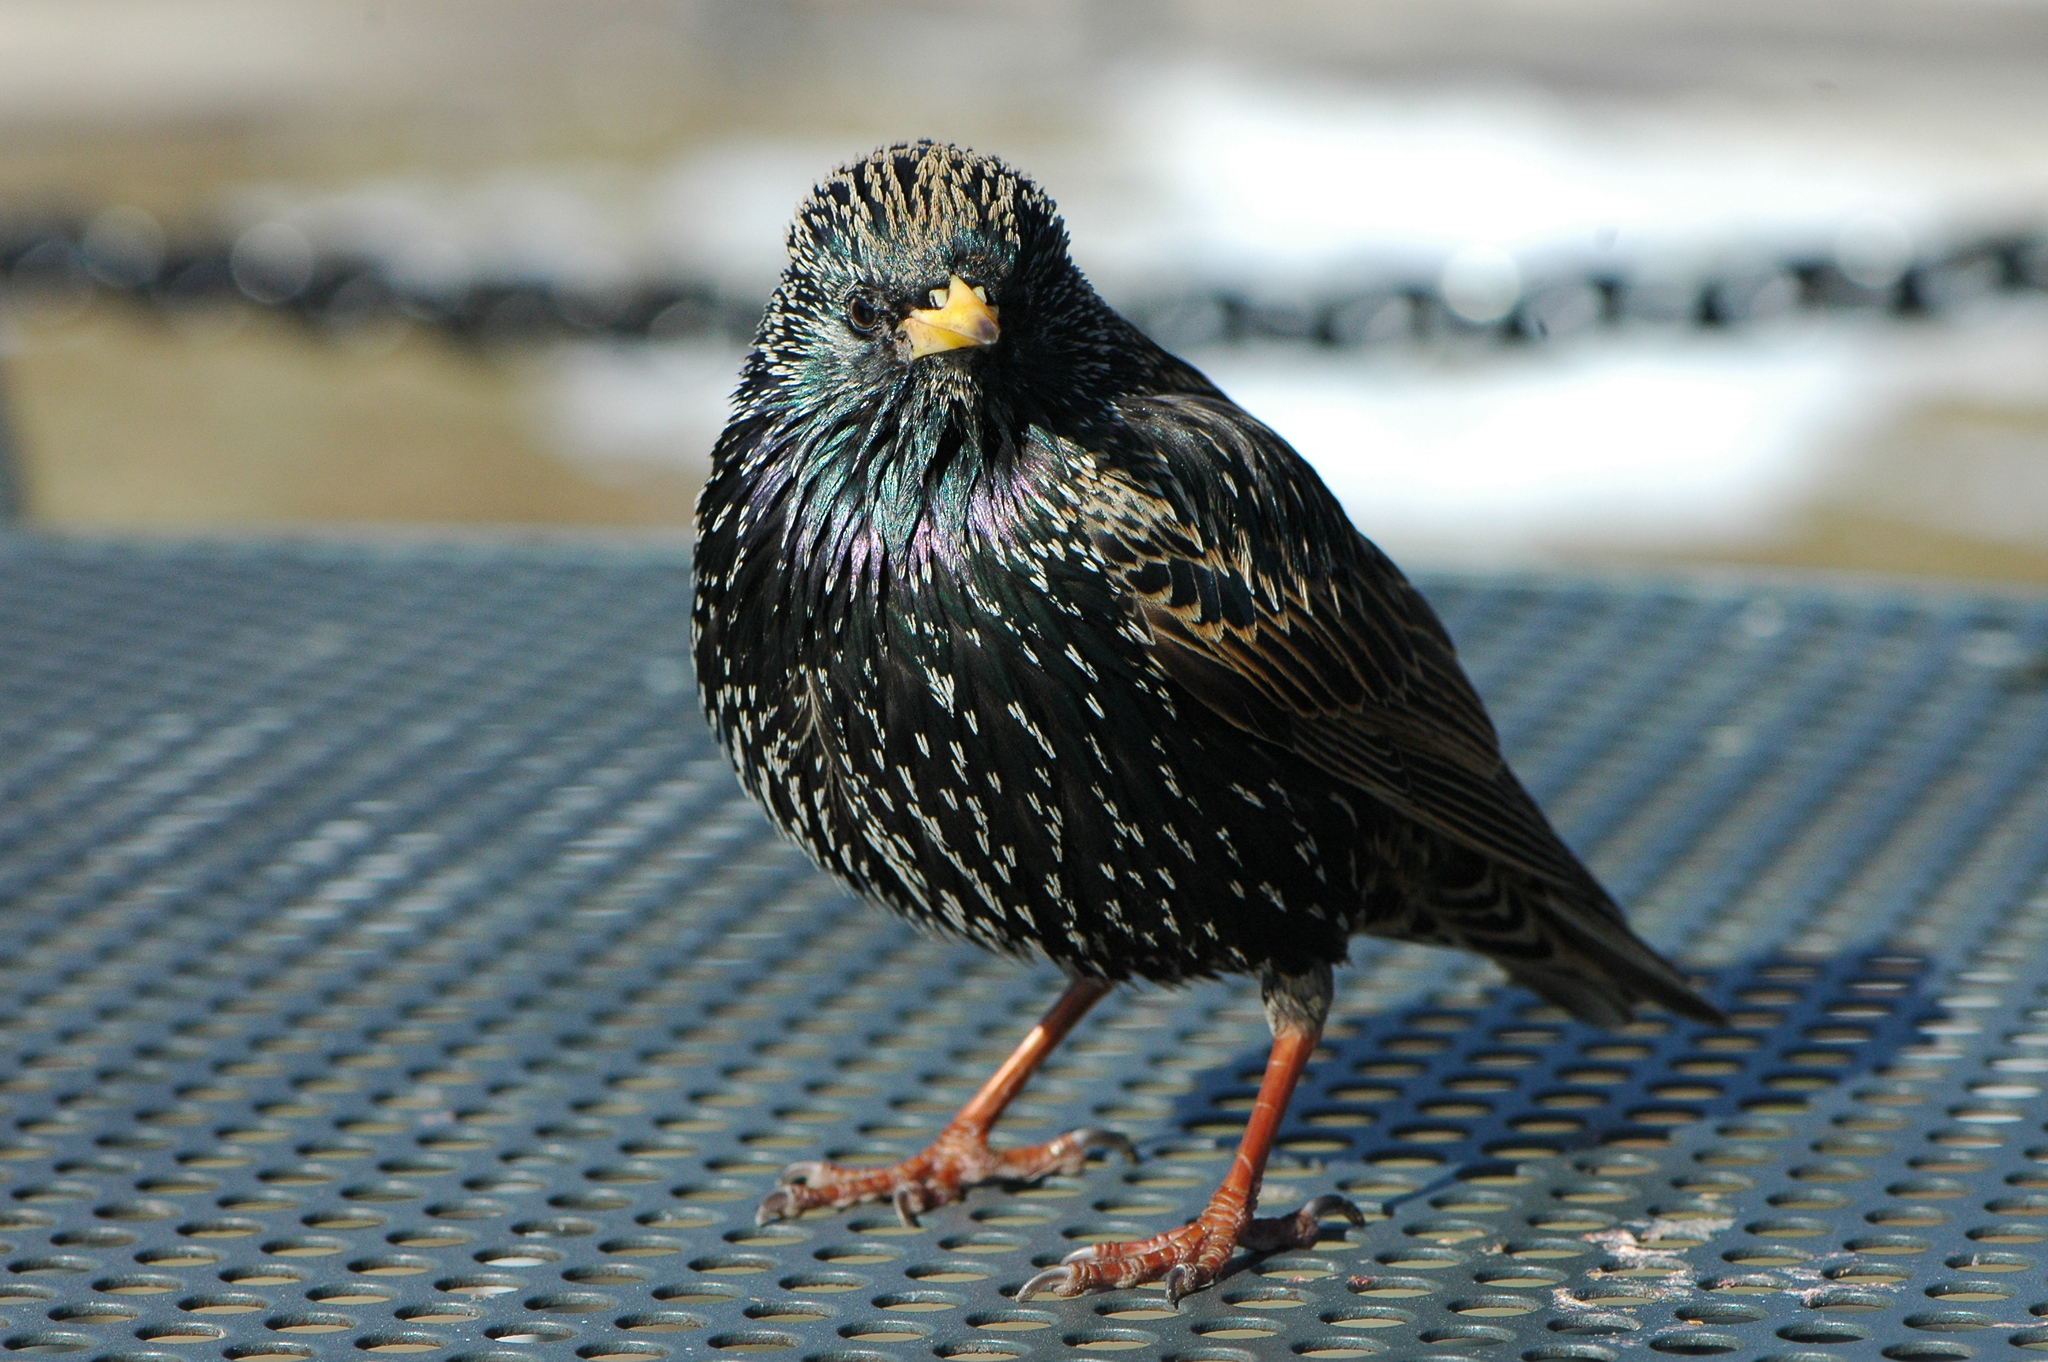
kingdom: Animalia
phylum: Chordata
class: Aves
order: Passeriformes
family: Sturnidae
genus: Sturnus
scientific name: Sturnus vulgaris
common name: Common starling
